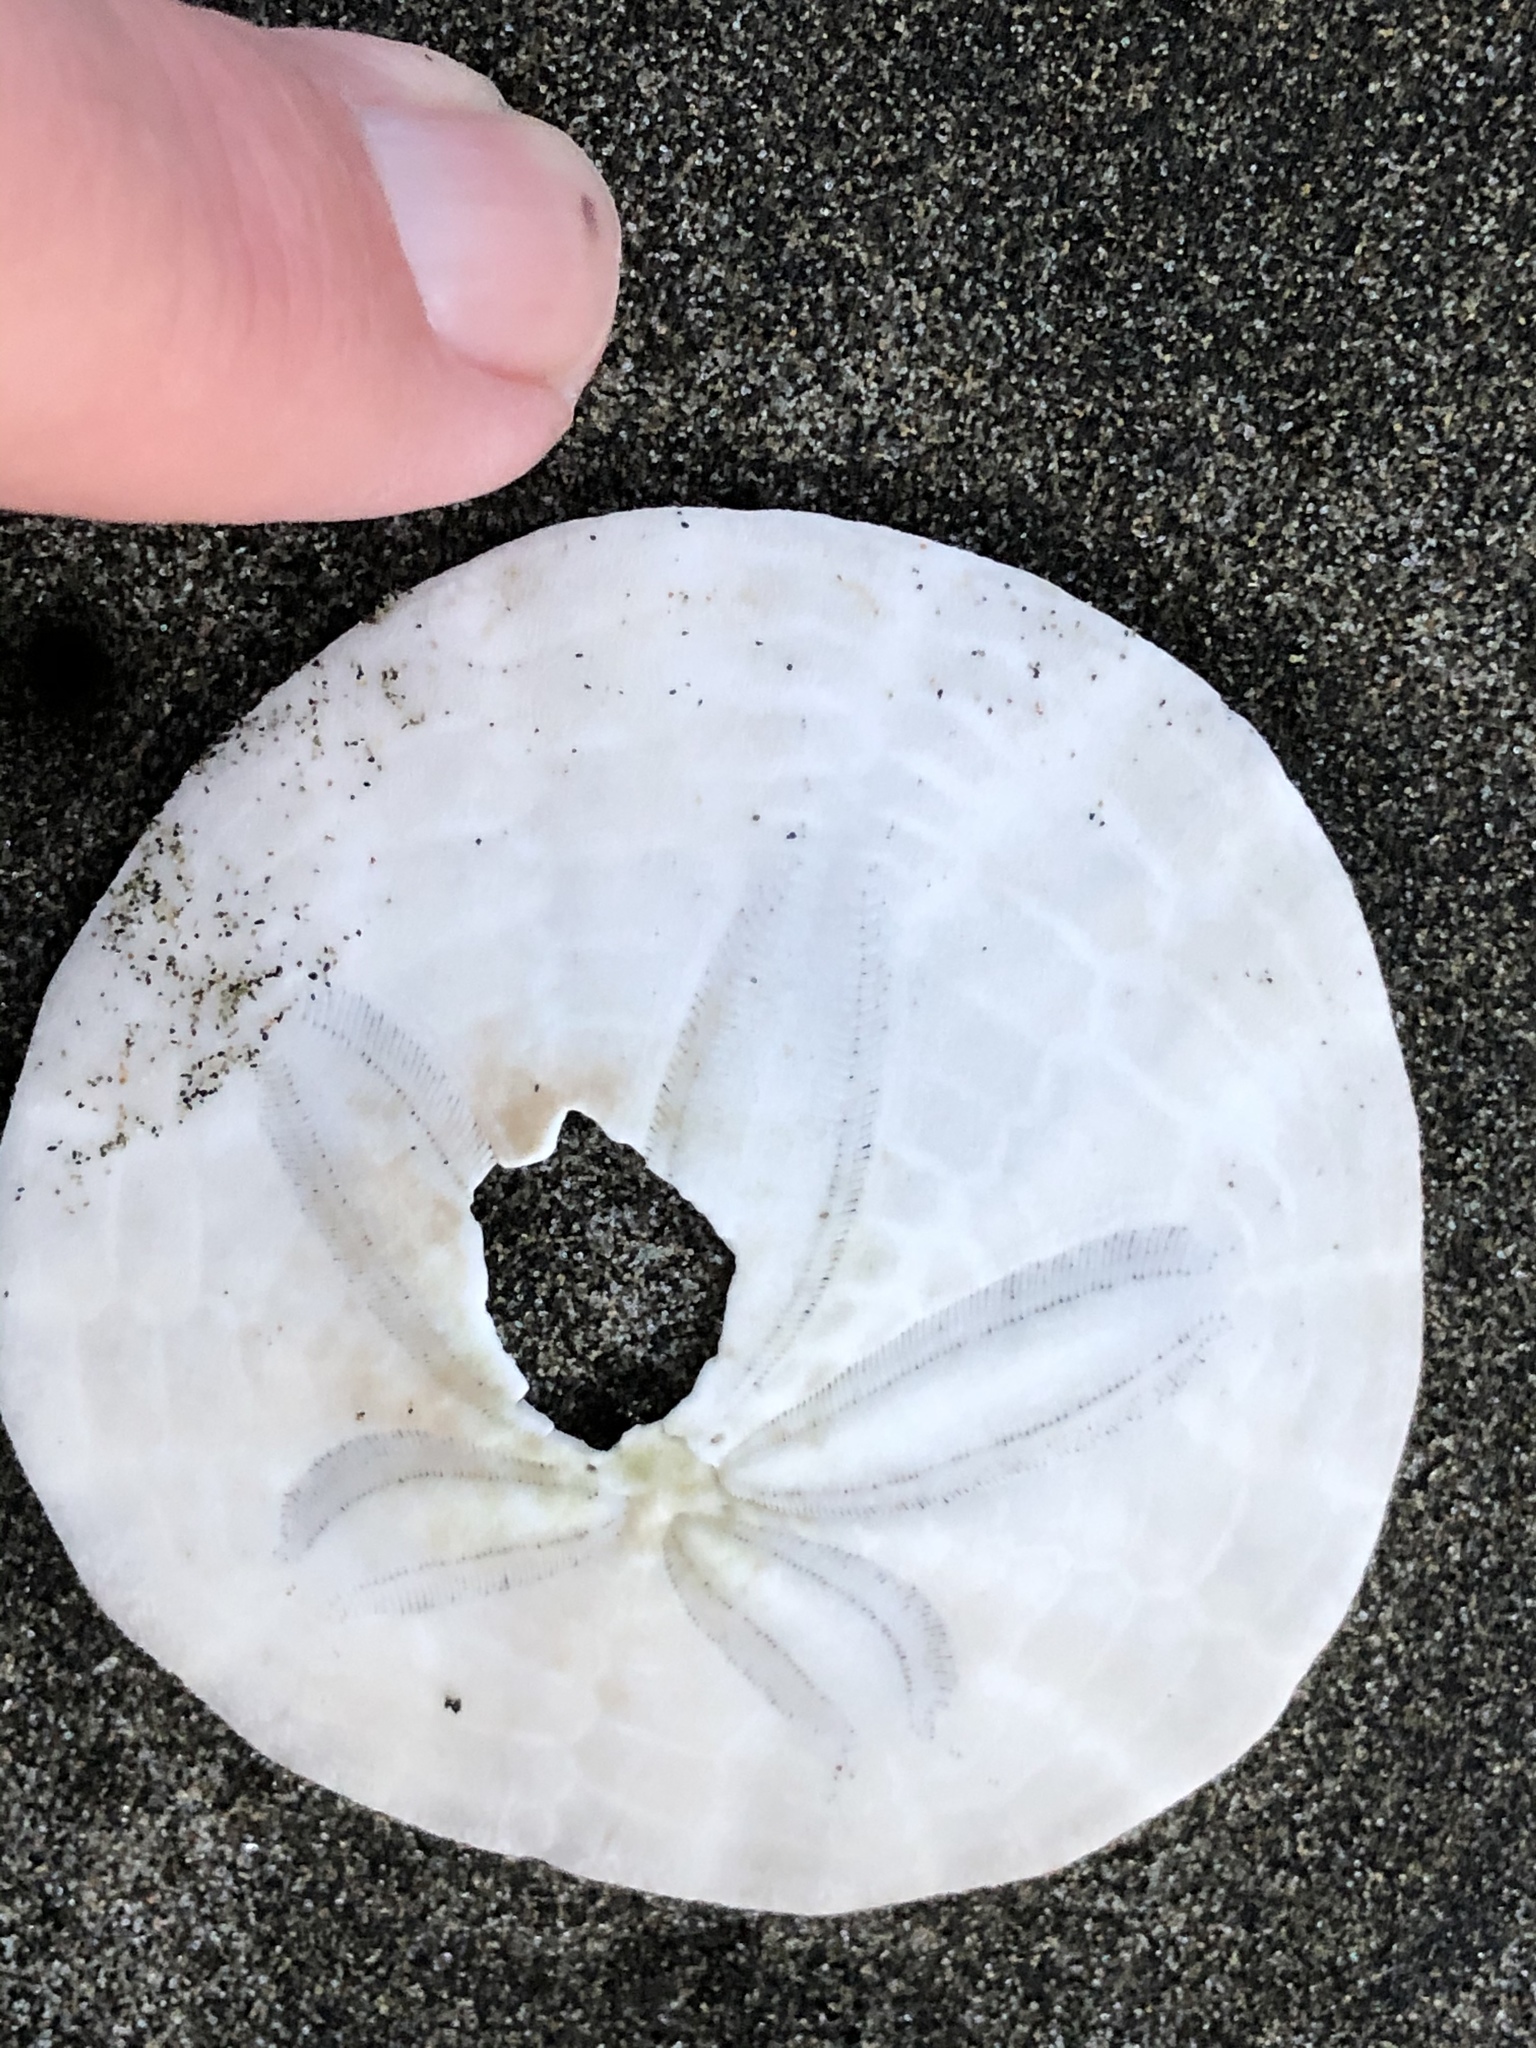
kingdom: Animalia
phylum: Echinodermata
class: Echinoidea
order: Echinolampadacea
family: Dendrasteridae
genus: Dendraster
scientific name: Dendraster excentricus
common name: Eccentric sand dollar sea urchin
